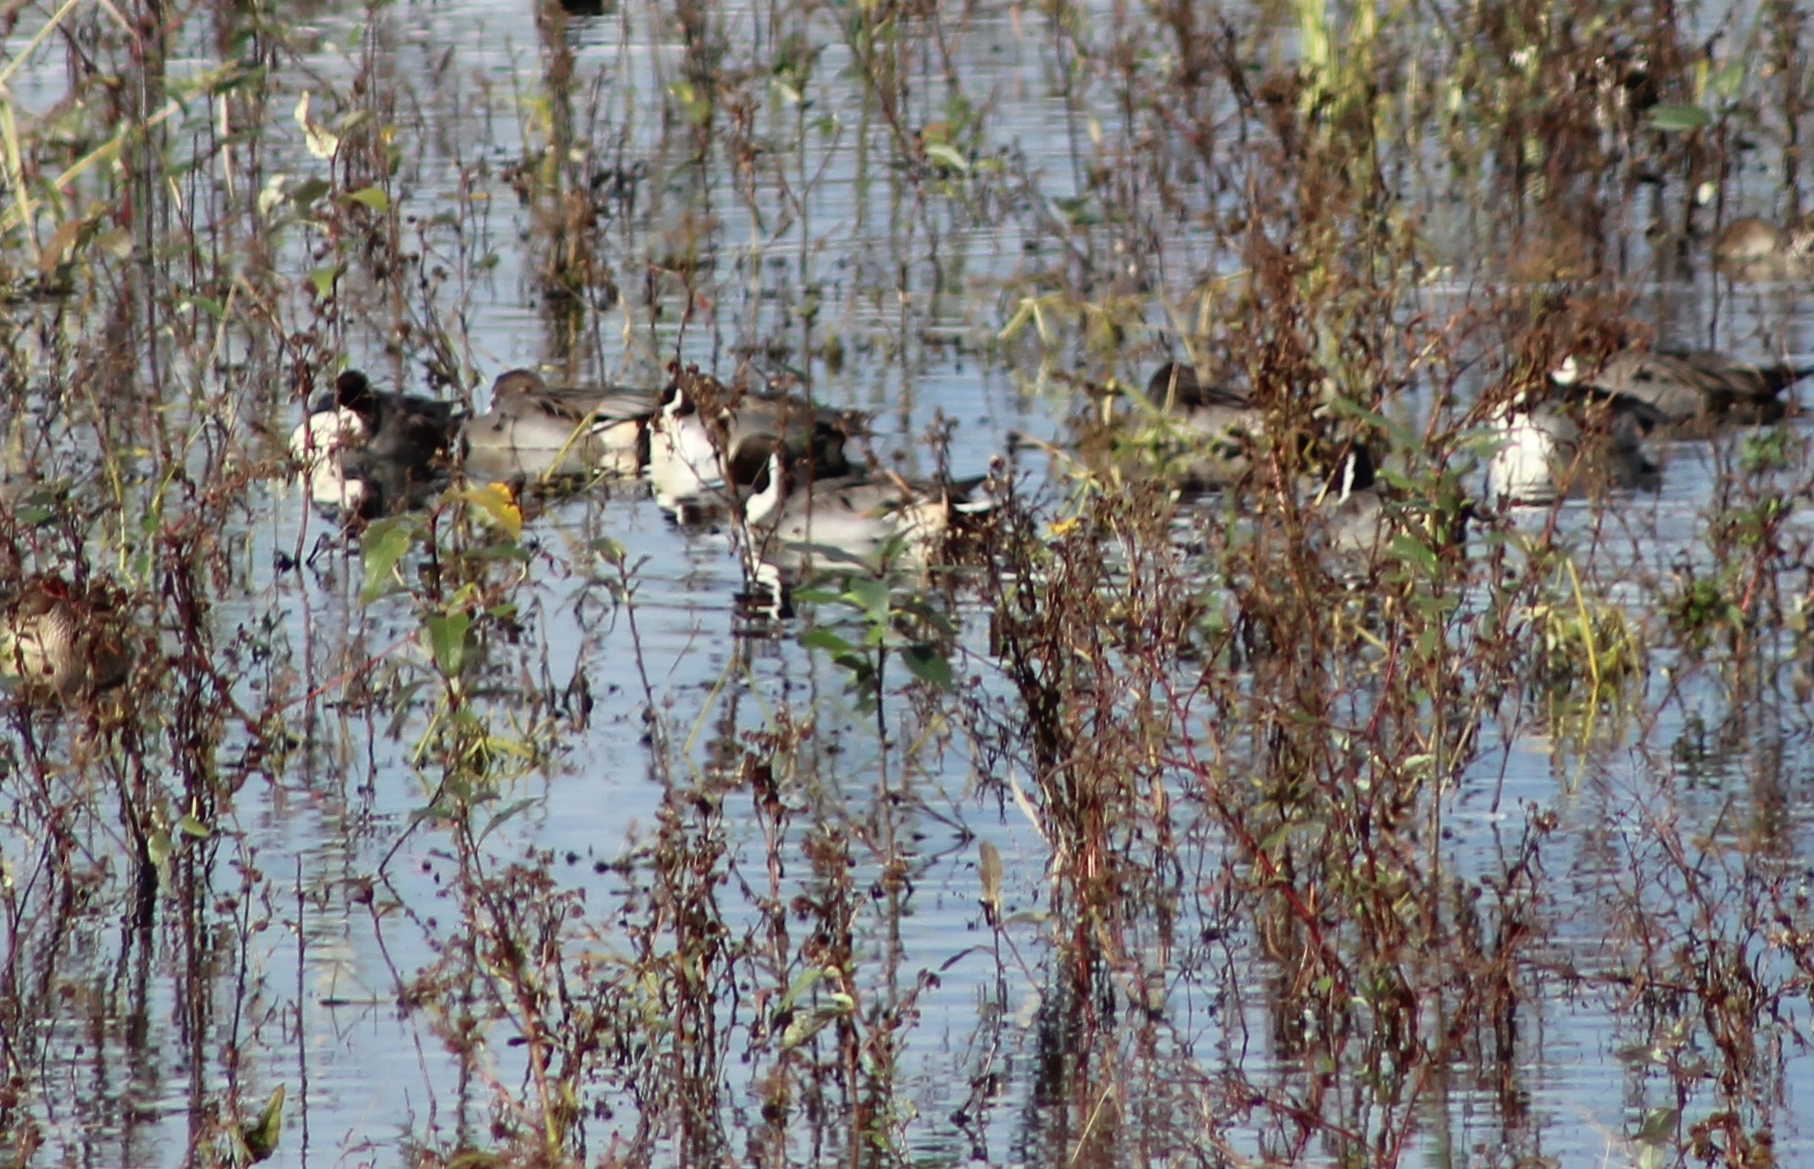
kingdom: Animalia
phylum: Chordata
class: Aves
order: Anseriformes
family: Anatidae
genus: Anas
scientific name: Anas acuta
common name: Northern pintail
